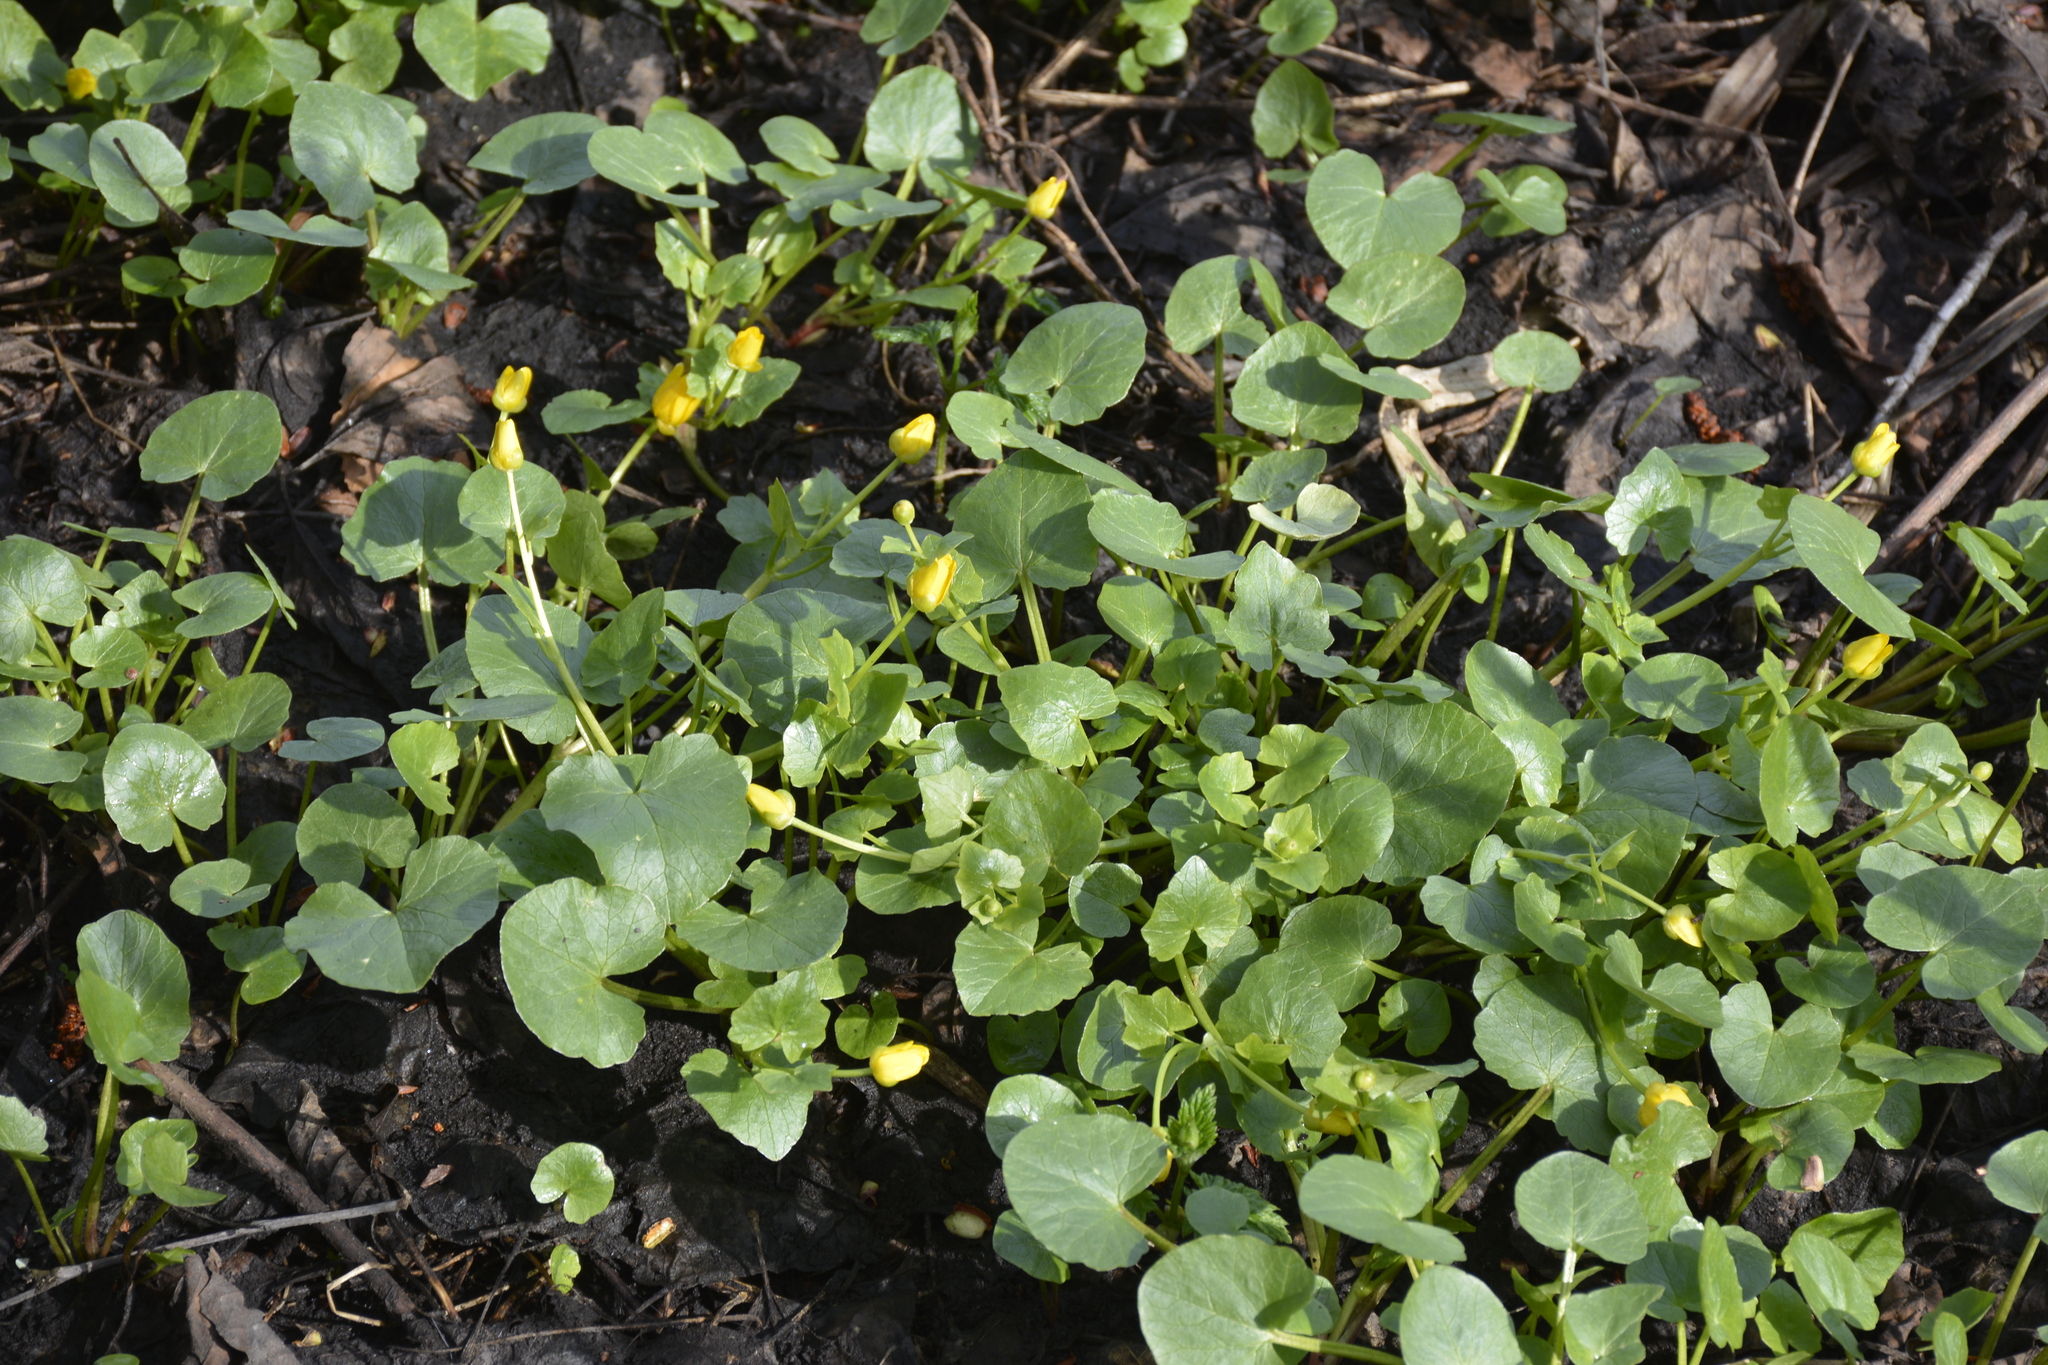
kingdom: Plantae
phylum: Tracheophyta
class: Magnoliopsida
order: Ranunculales
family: Ranunculaceae
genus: Ficaria
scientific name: Ficaria verna
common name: Lesser celandine
